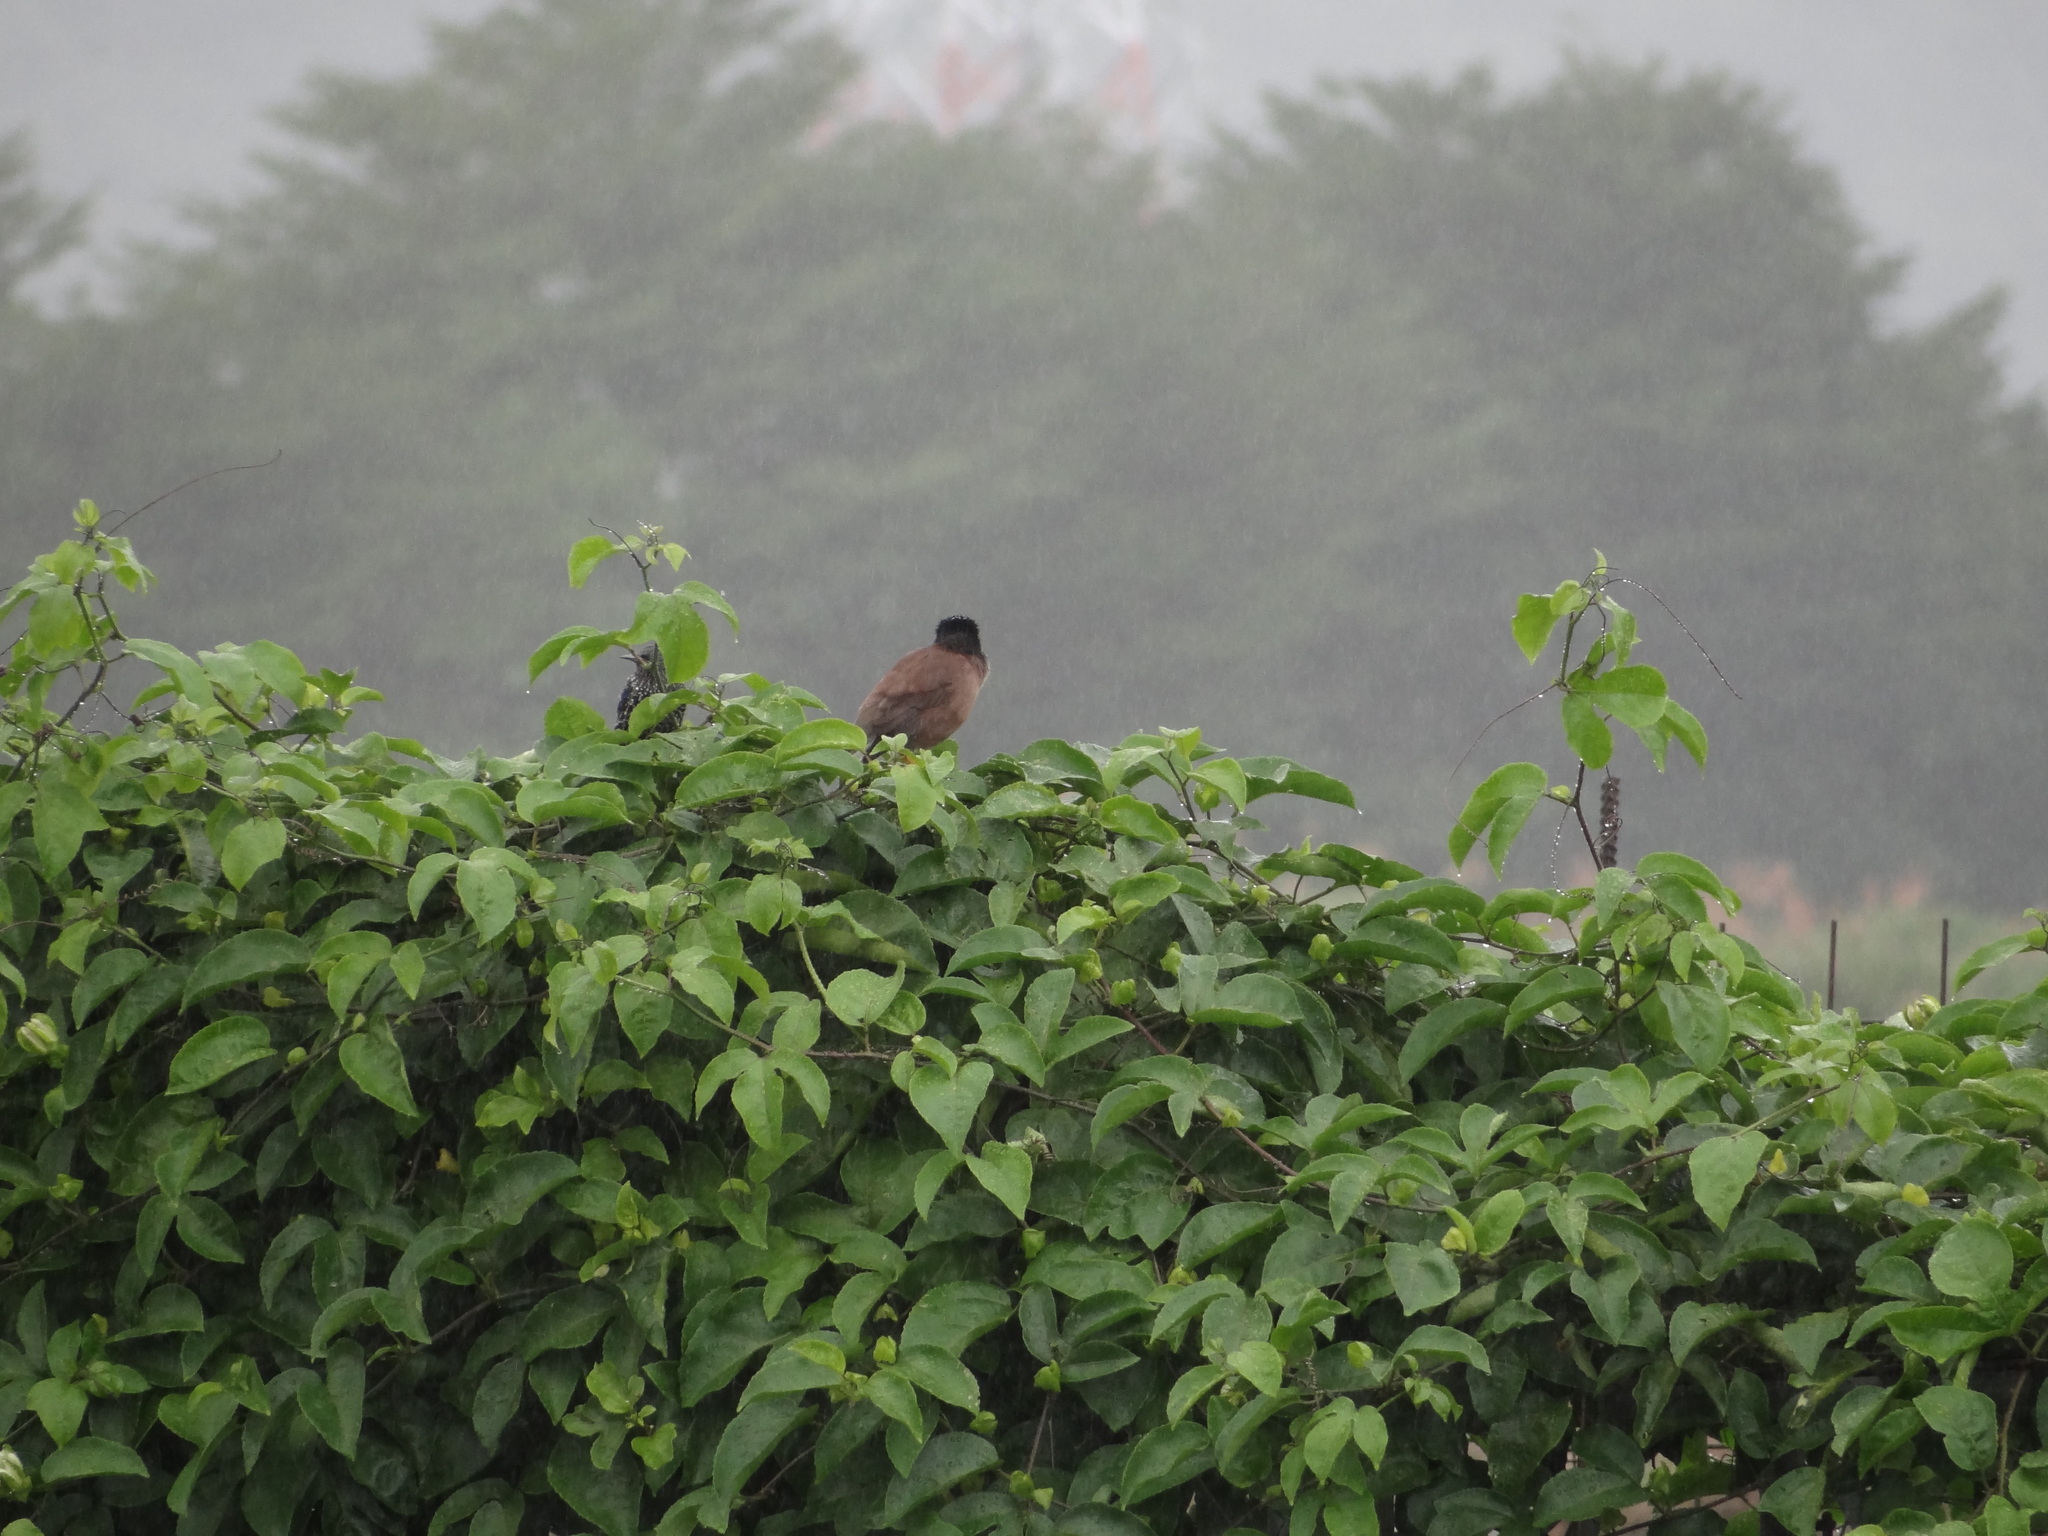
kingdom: Animalia
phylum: Chordata
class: Aves
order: Passeriformes
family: Sturnidae
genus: Sturnus
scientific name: Sturnus vulgaris
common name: Common starling
